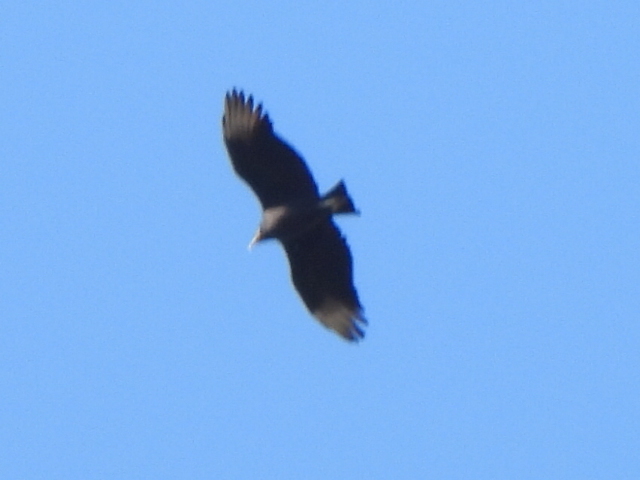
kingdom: Animalia
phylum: Chordata
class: Aves
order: Accipitriformes
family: Cathartidae
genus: Coragyps
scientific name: Coragyps atratus
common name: Black vulture
